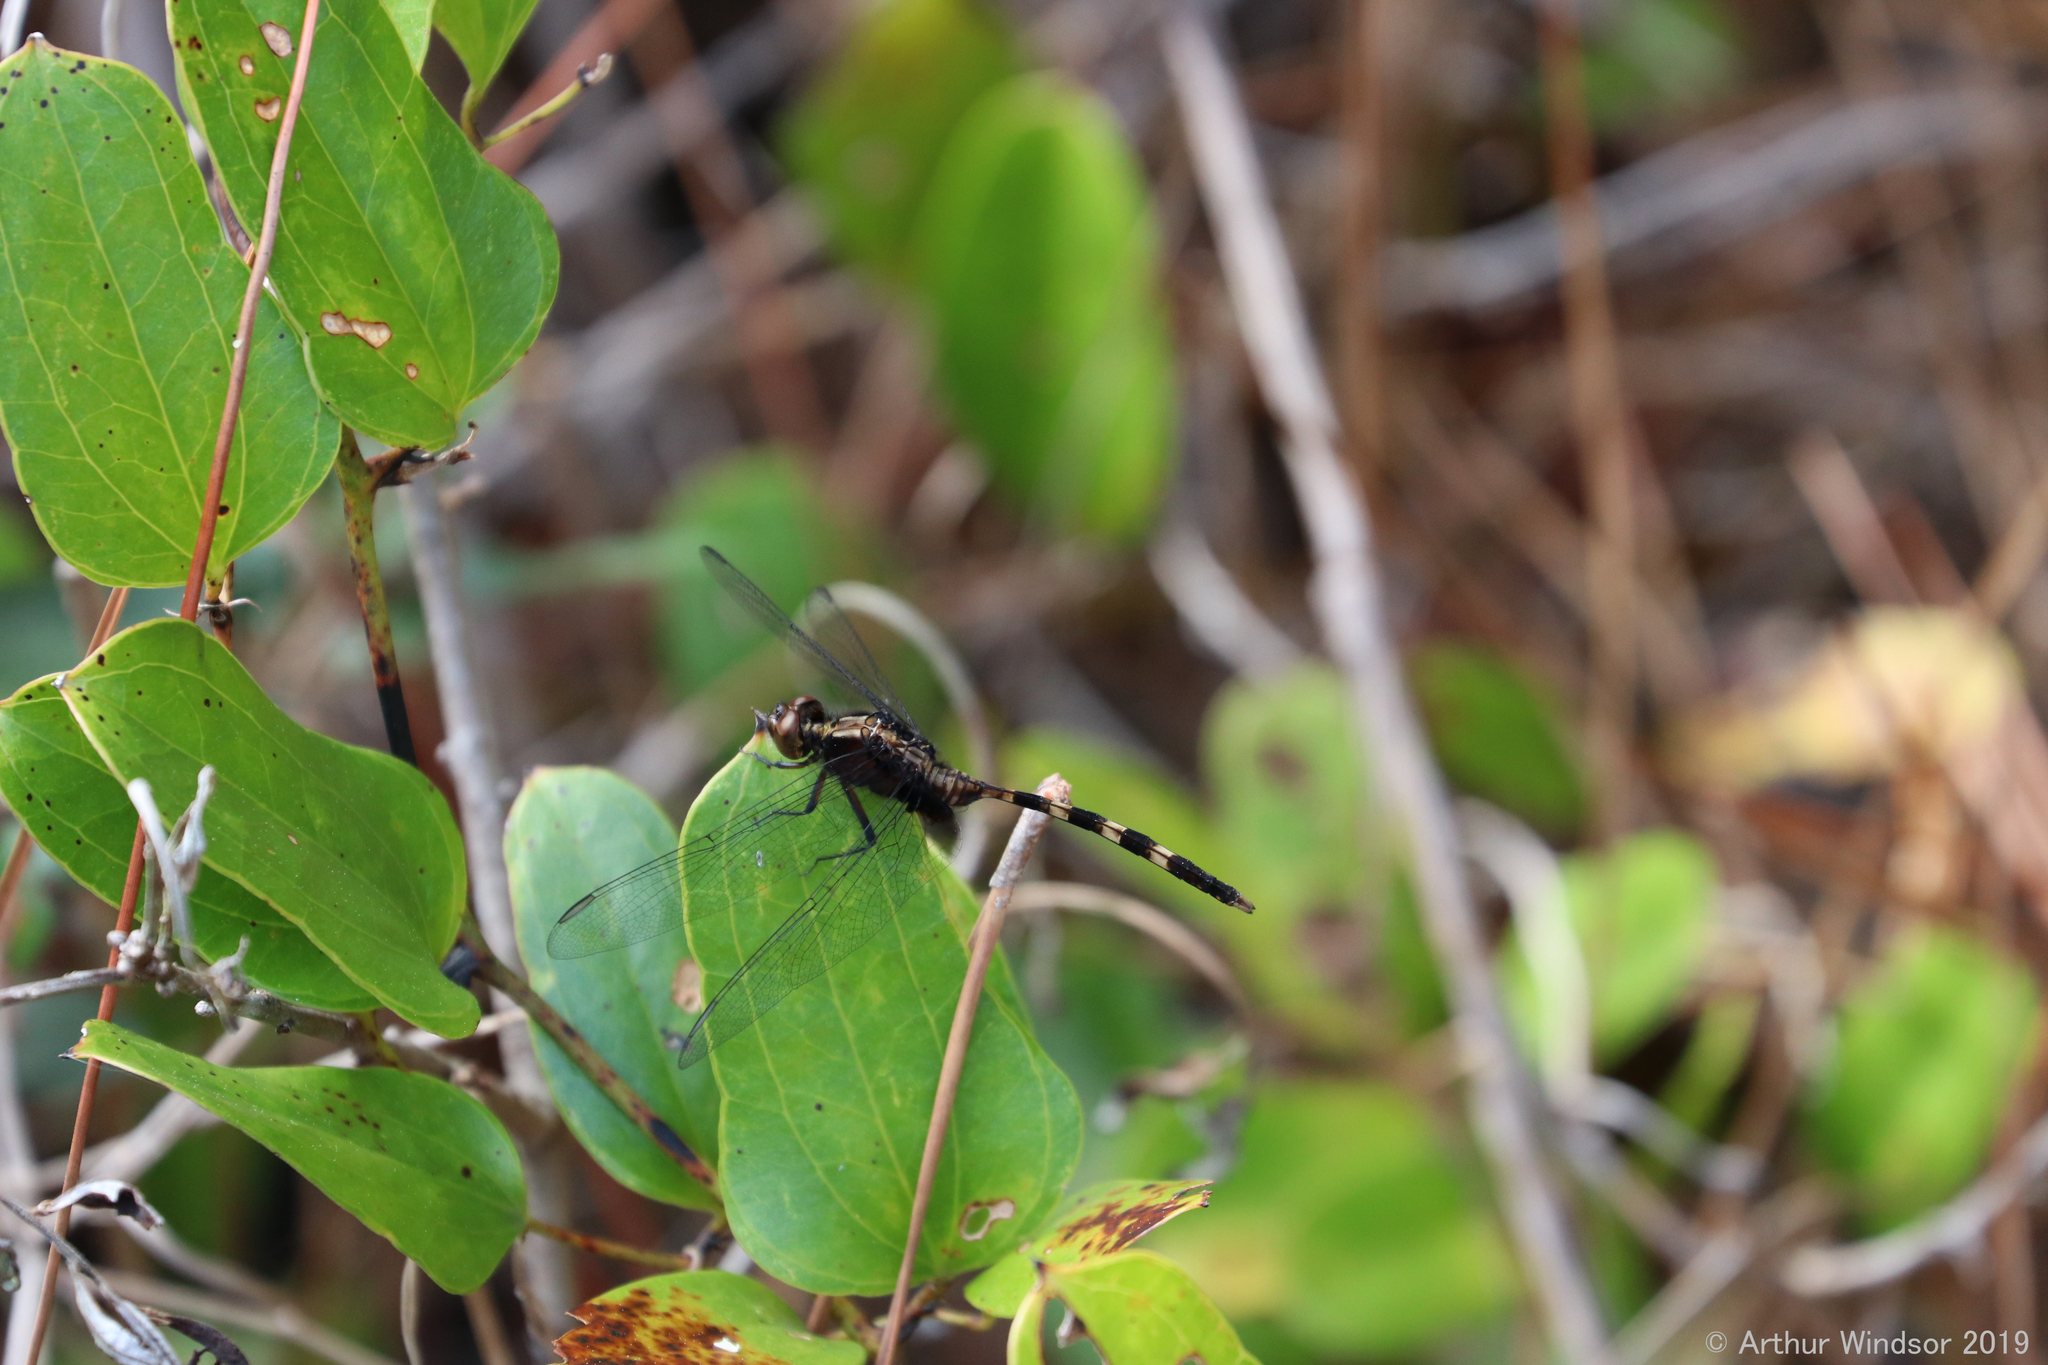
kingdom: Animalia
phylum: Arthropoda
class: Insecta
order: Odonata
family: Libellulidae
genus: Erythemis
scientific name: Erythemis plebeja
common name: Pin-tailed pondhawk
